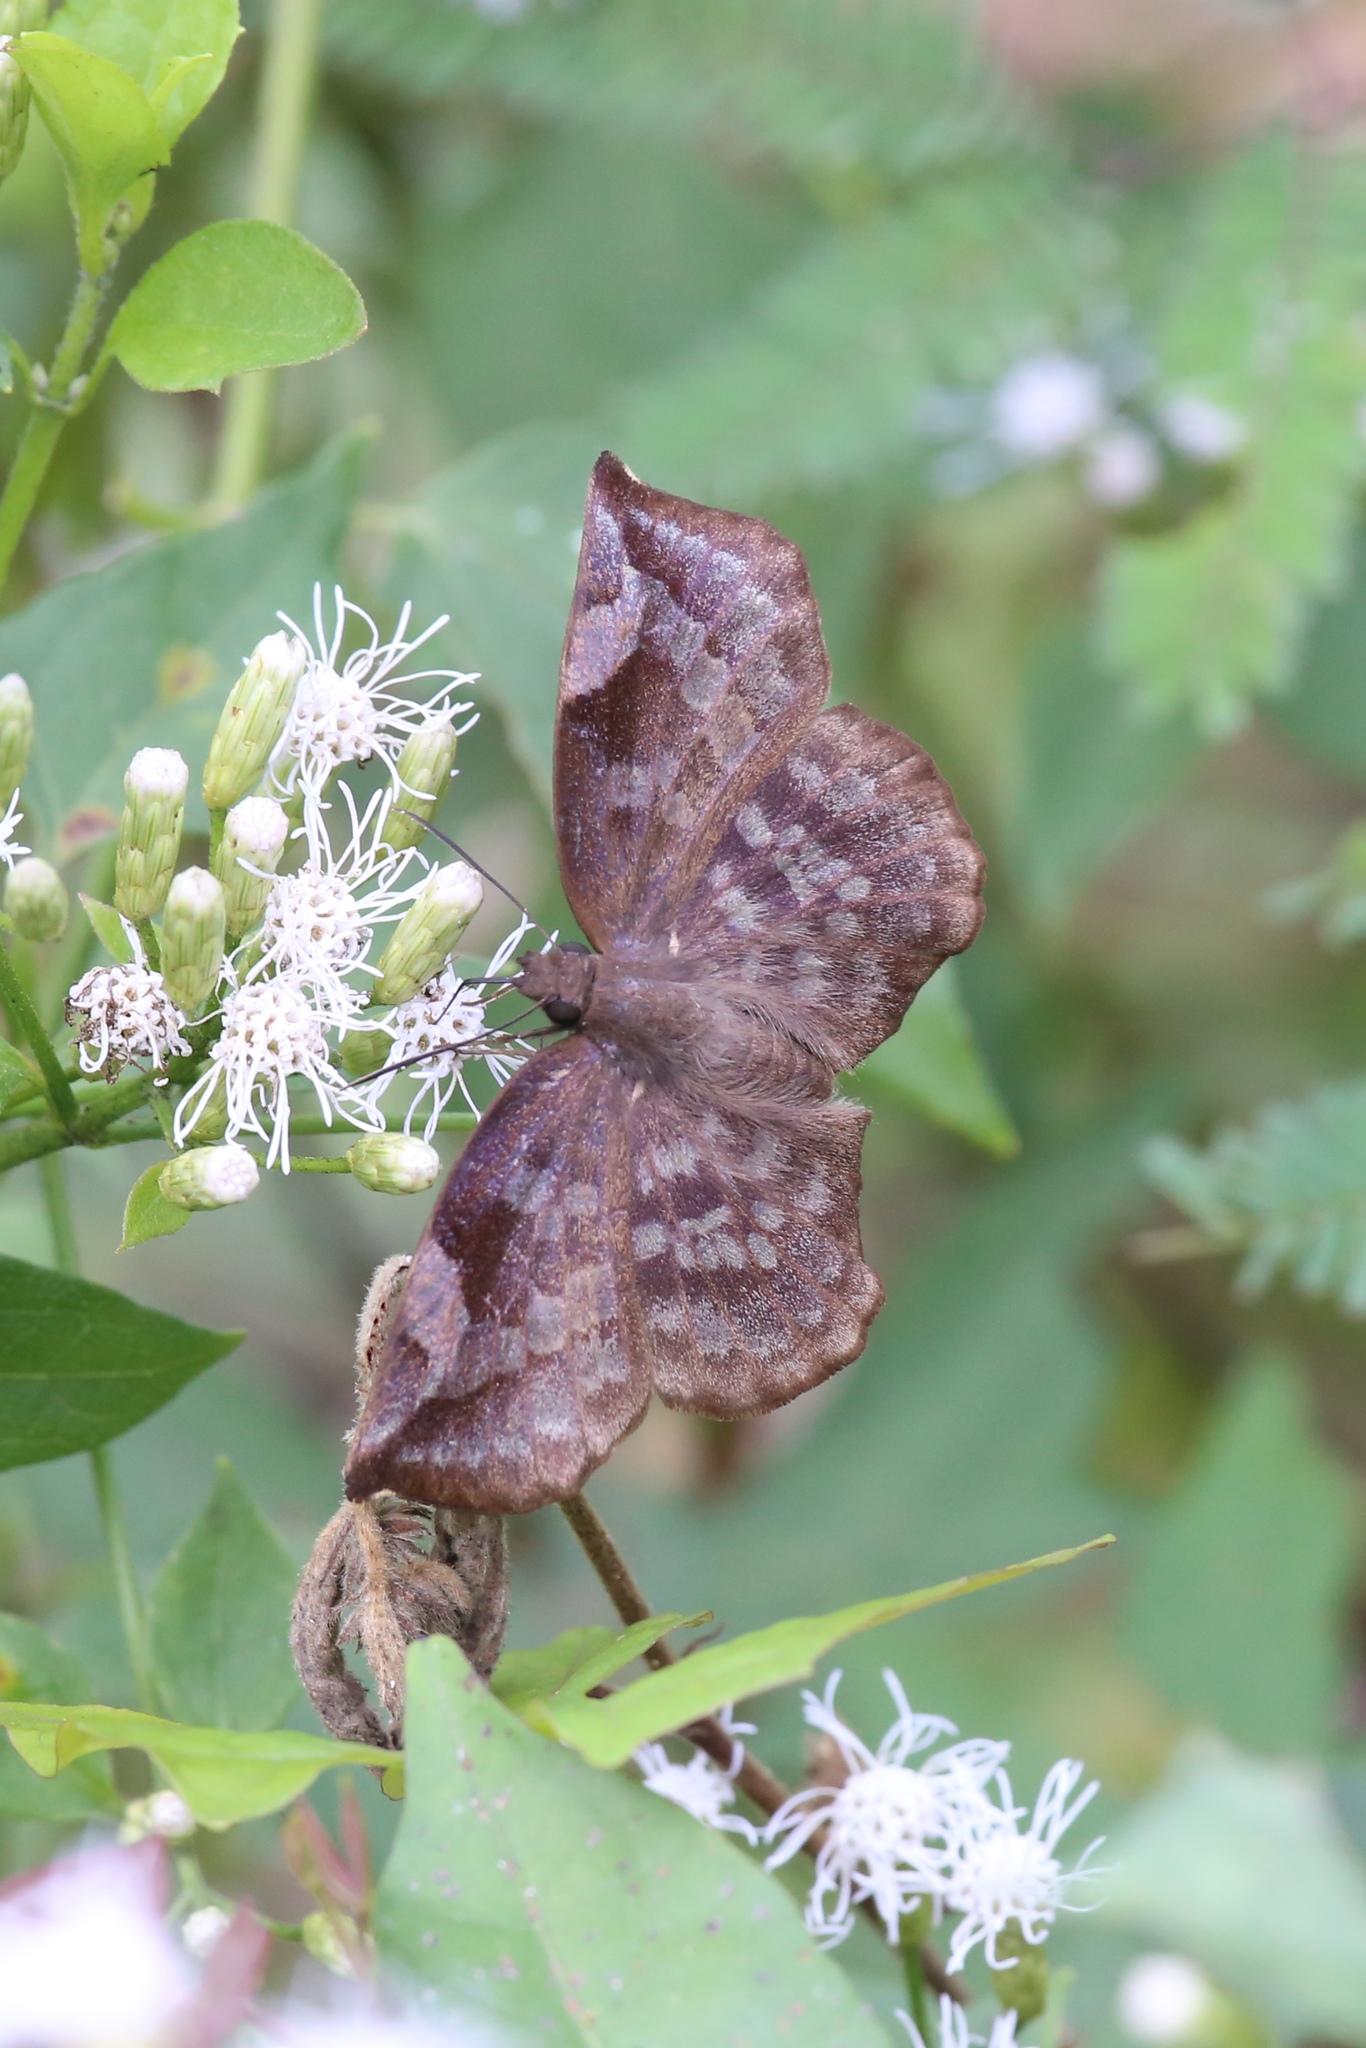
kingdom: Animalia
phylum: Arthropoda
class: Insecta
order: Lepidoptera
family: Hesperiidae
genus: Achlyodes
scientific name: Achlyodes thraso
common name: Sickle-winged skipper
